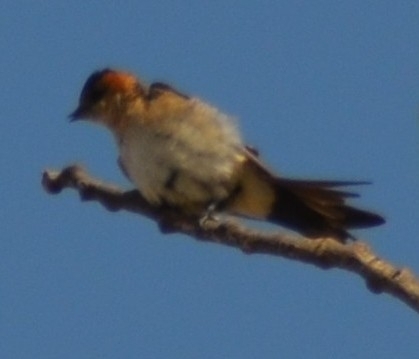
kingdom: Animalia
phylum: Chordata
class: Aves
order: Passeriformes
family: Hirundinidae
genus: Cecropis
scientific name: Cecropis daurica
